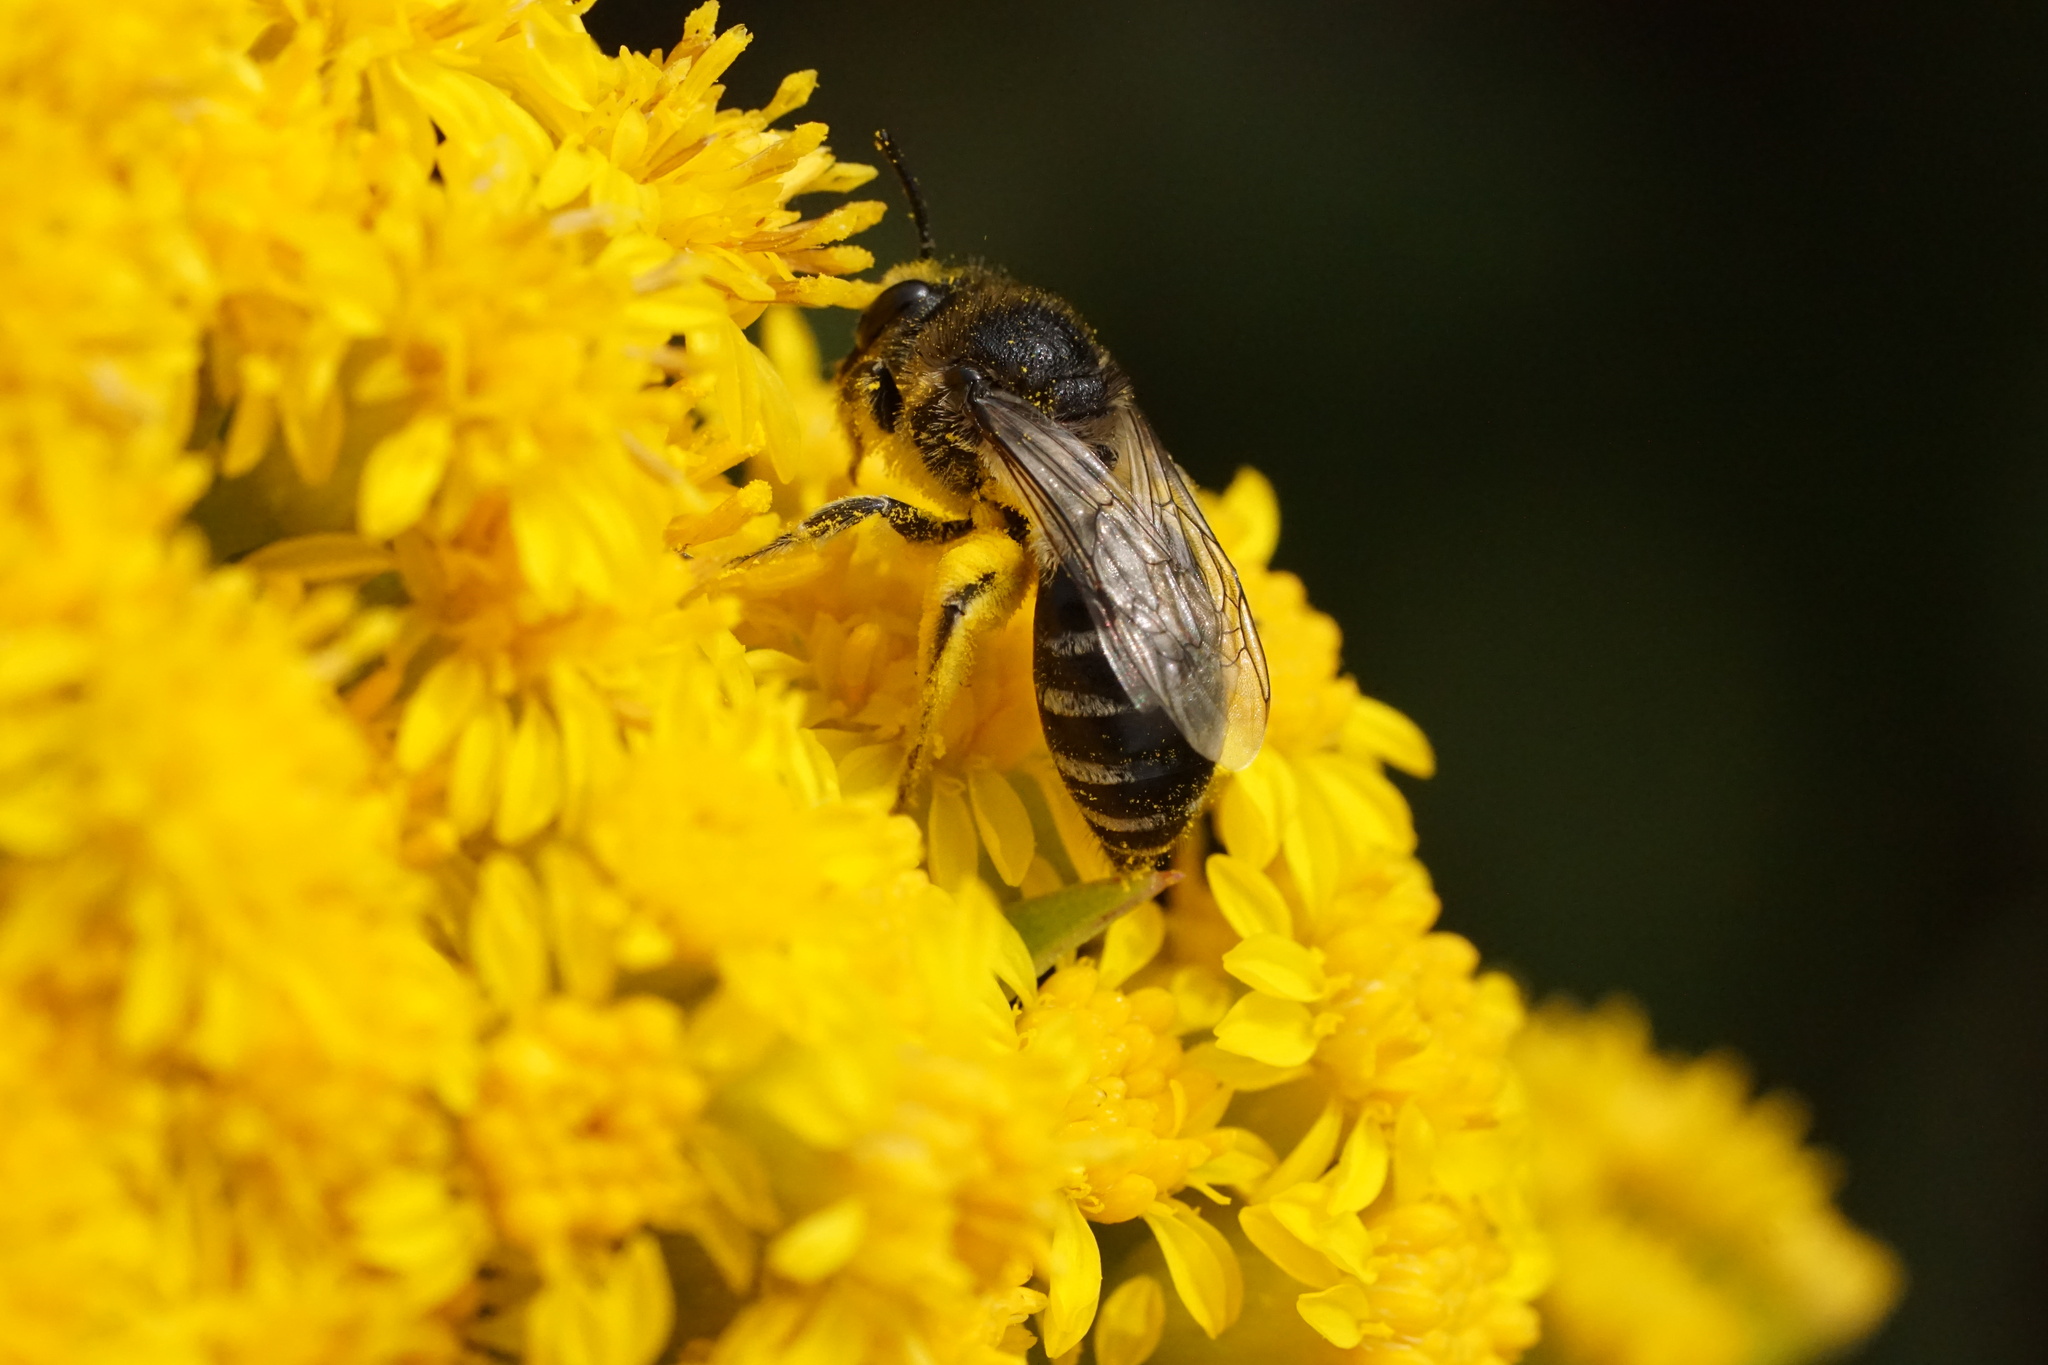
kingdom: Animalia
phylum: Arthropoda
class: Insecta
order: Hymenoptera
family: Colletidae
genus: Colletes
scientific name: Colletes simulans
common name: Spine-shouldered cellophane bee
